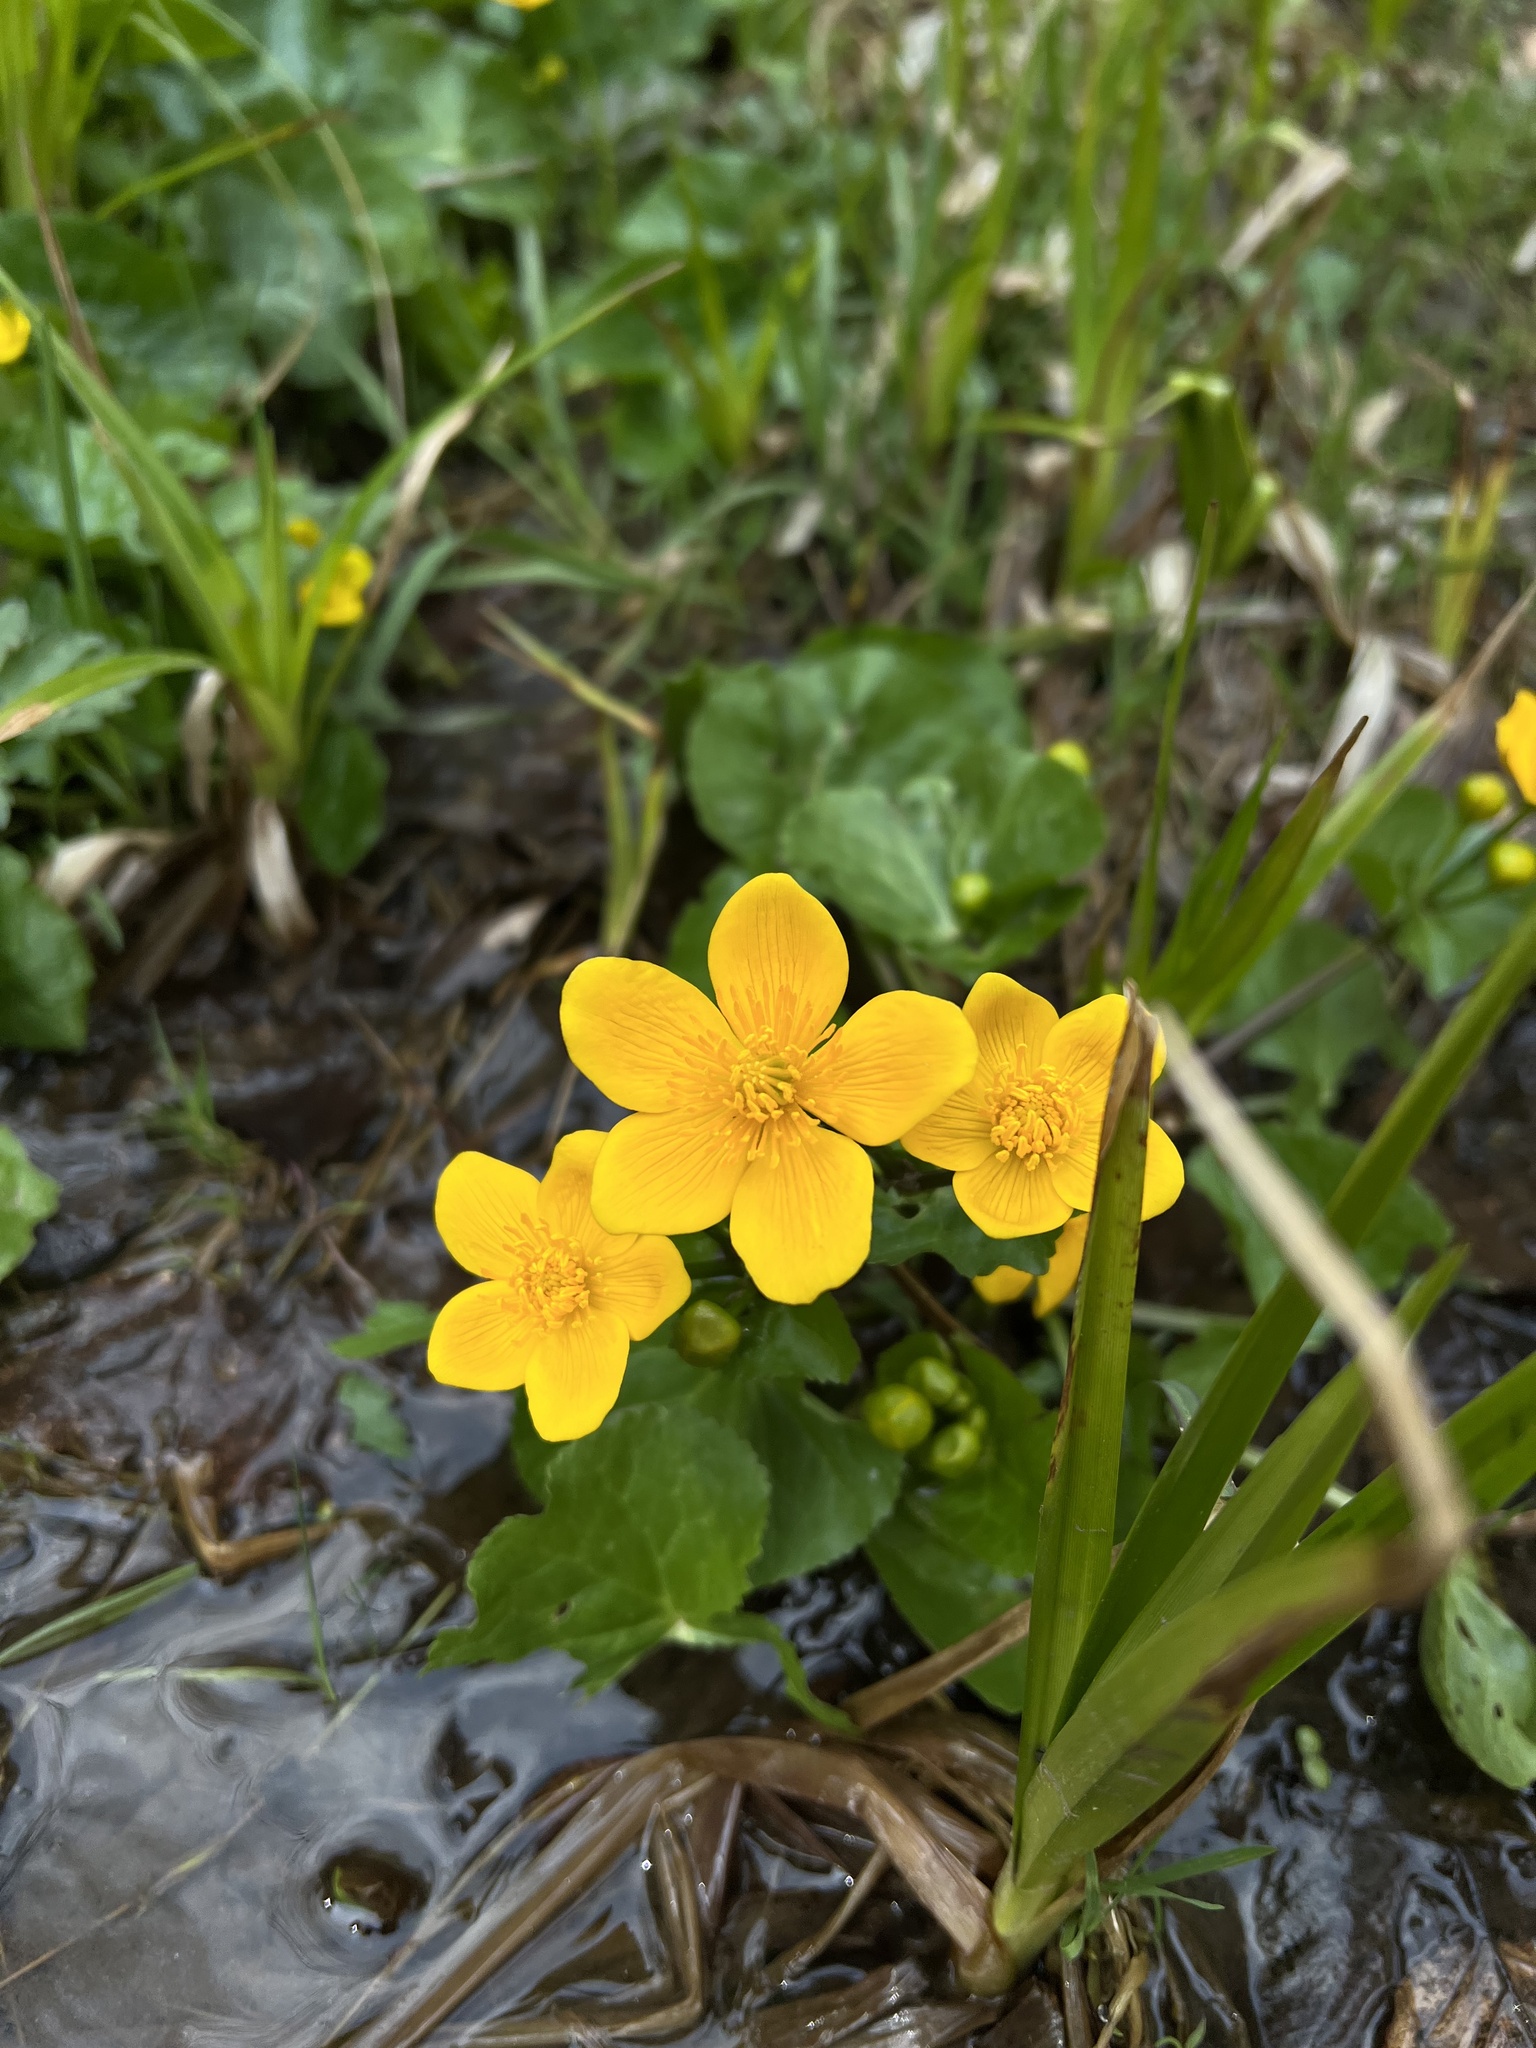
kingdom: Plantae
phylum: Tracheophyta
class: Magnoliopsida
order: Ranunculales
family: Ranunculaceae
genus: Caltha
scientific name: Caltha palustris
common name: Marsh marigold
